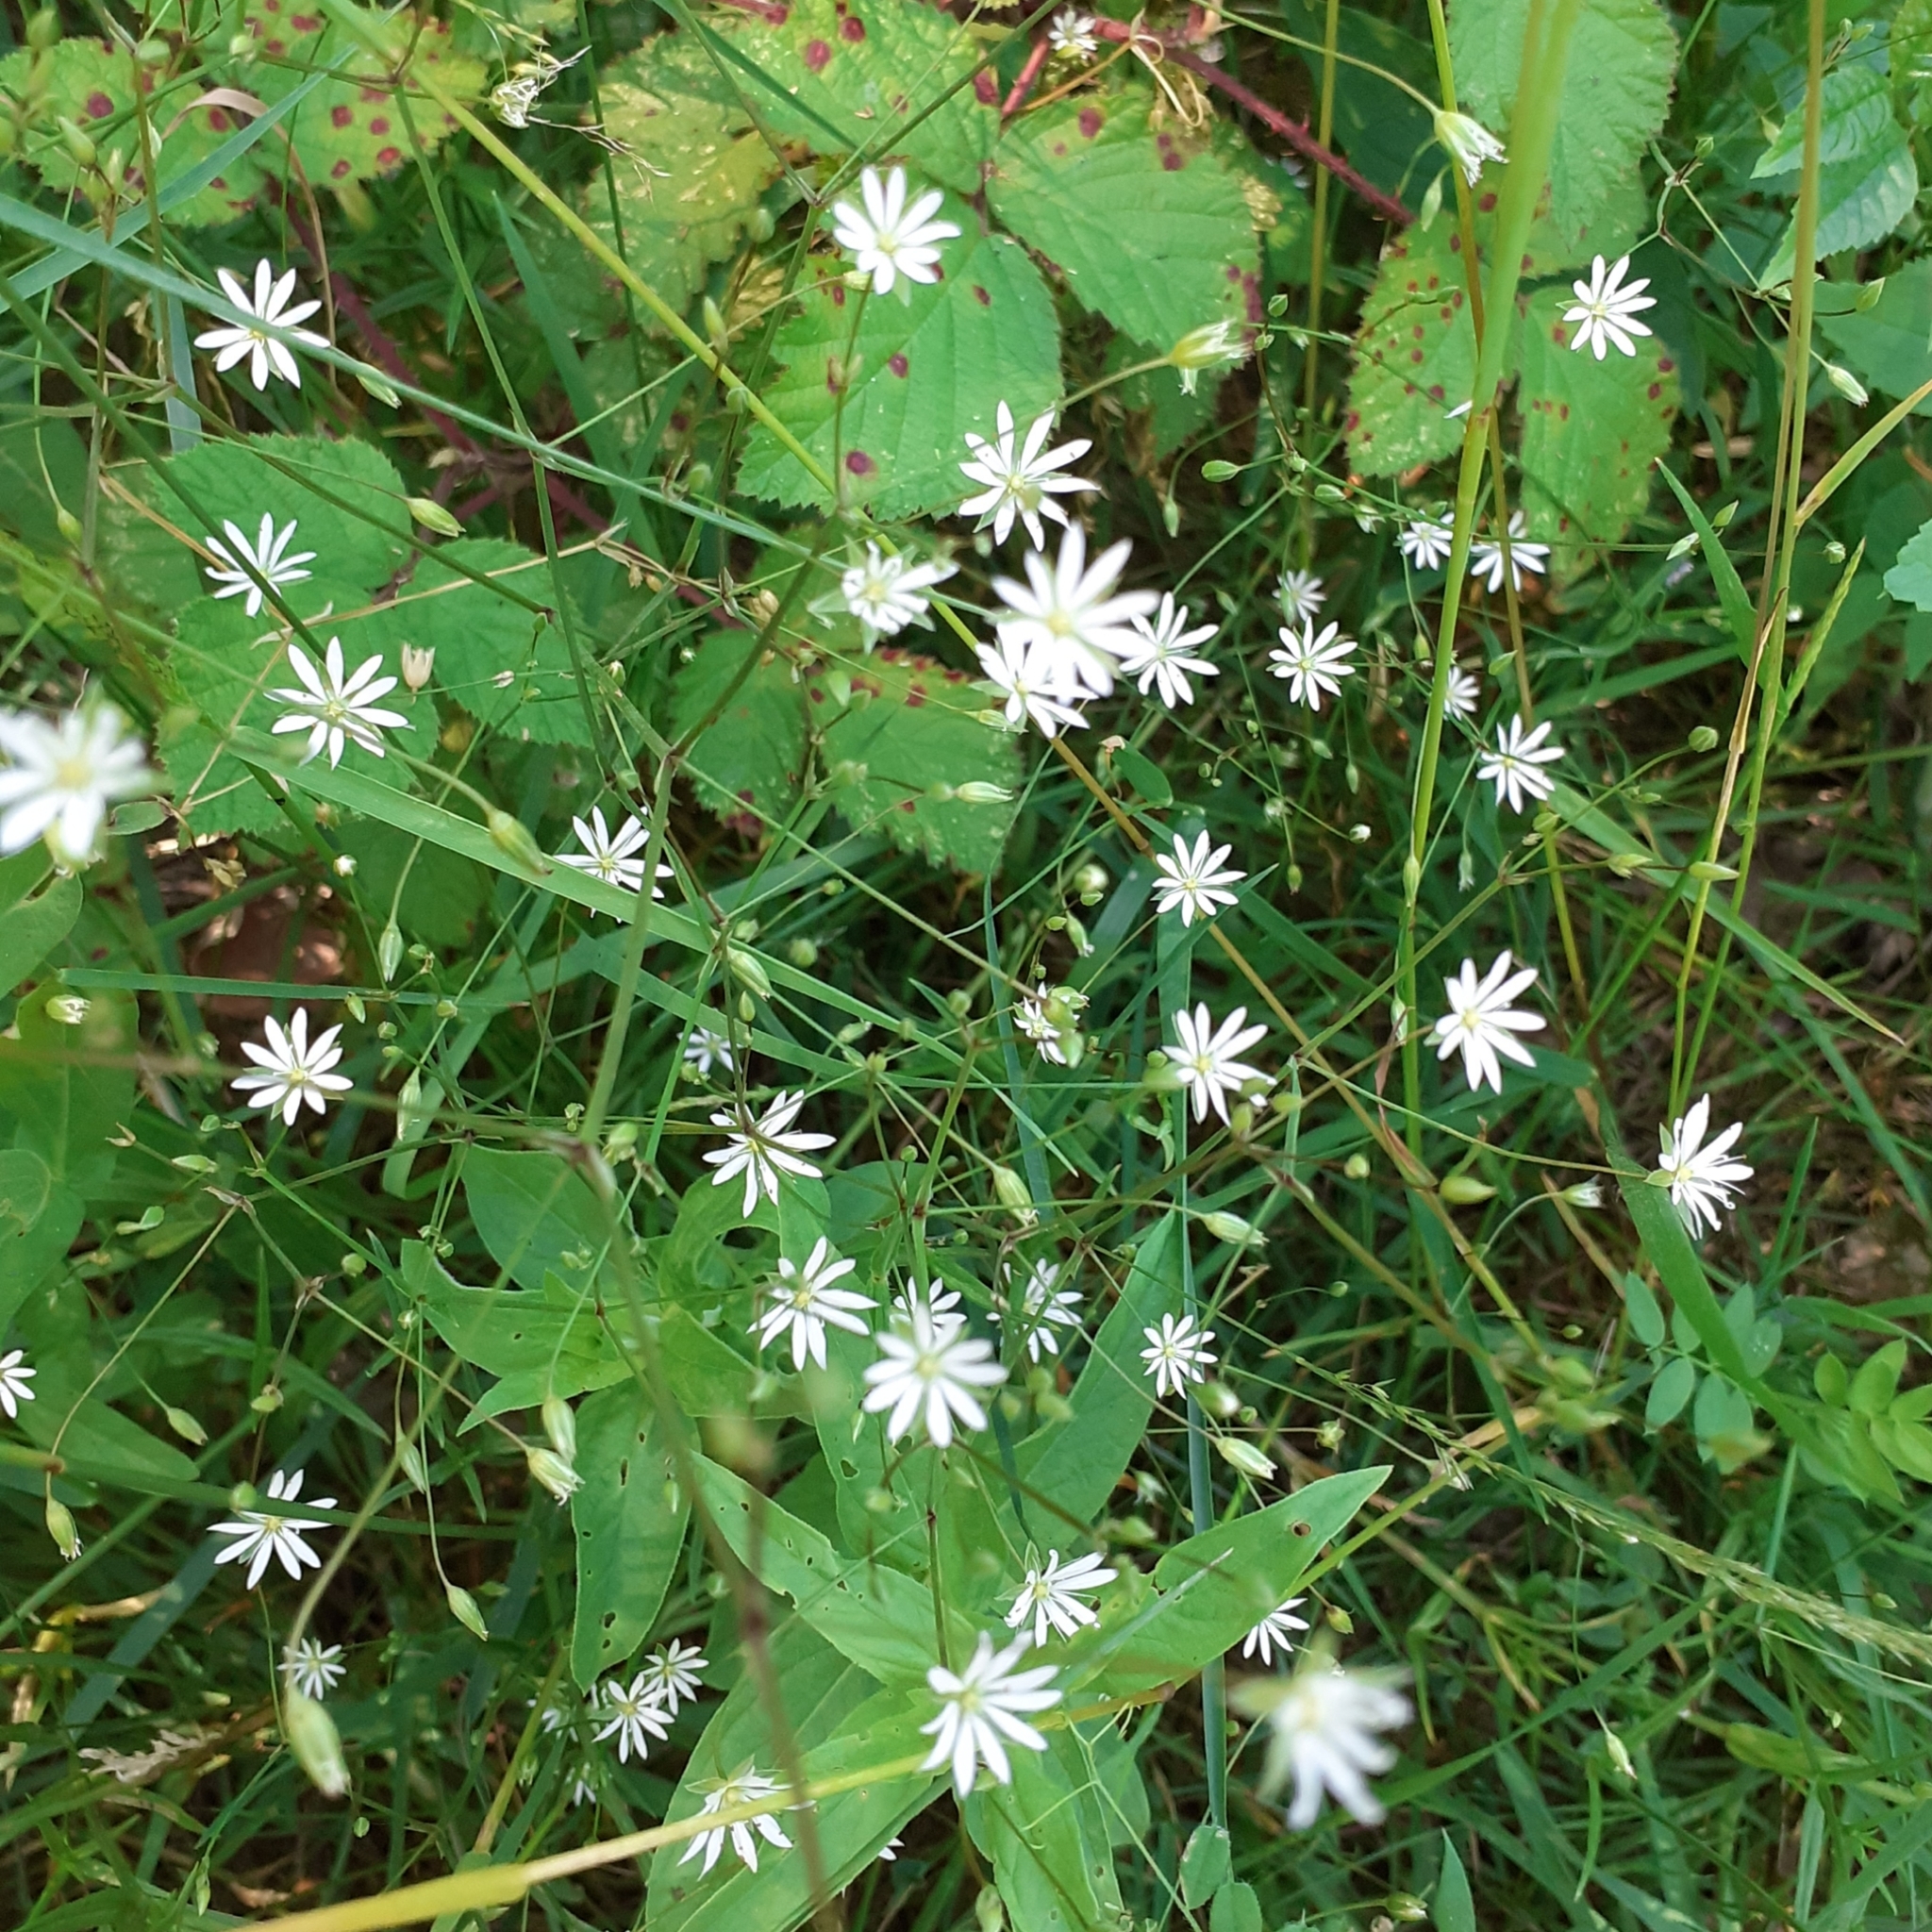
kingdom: Plantae
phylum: Tracheophyta
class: Magnoliopsida
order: Caryophyllales
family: Caryophyllaceae
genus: Stellaria
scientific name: Stellaria graminea
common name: Grass-like starwort
